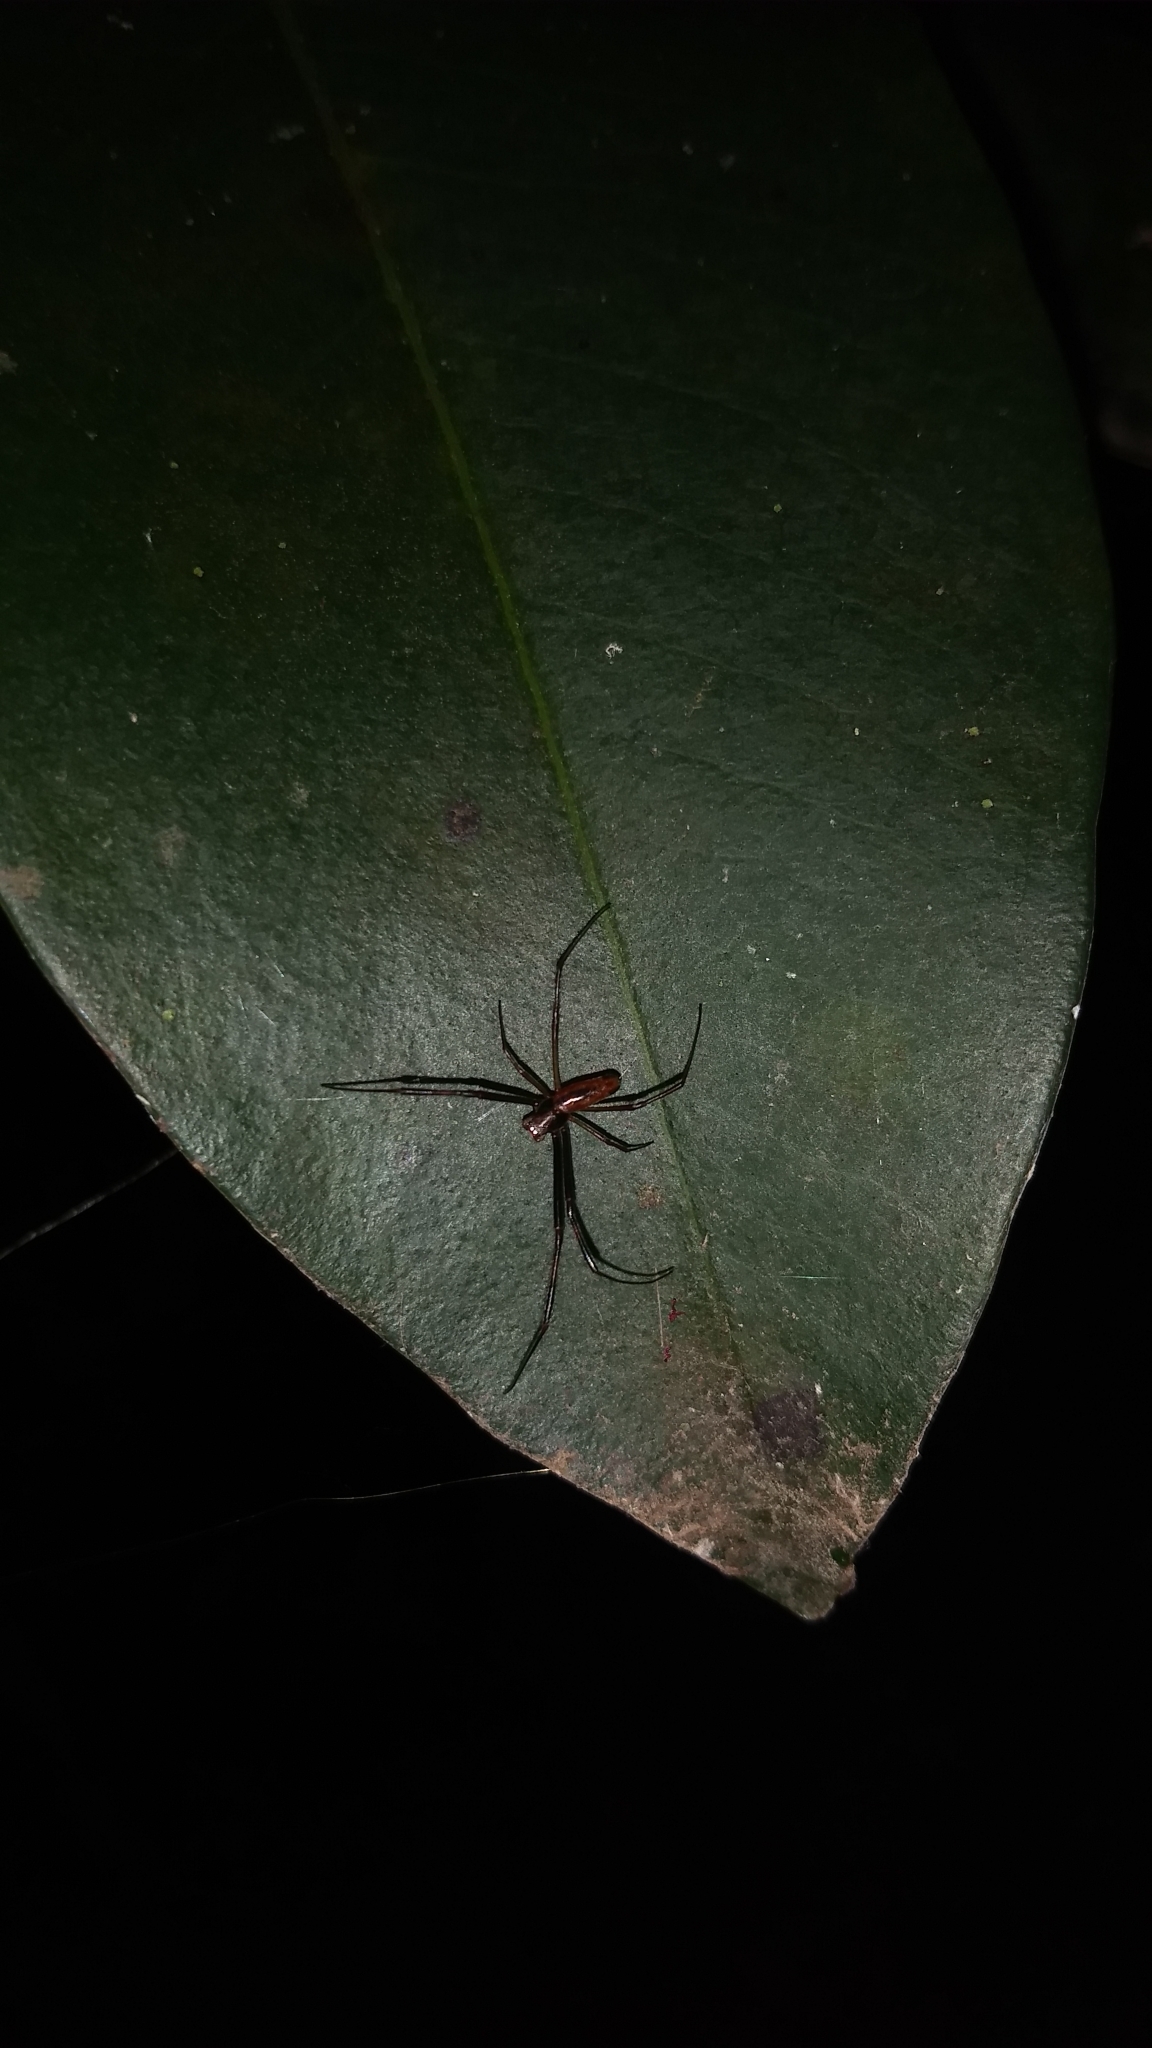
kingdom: Animalia
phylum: Arthropoda
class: Arachnida
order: Araneae
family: Araneidae
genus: Trichonephila
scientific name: Trichonephila clavipes
